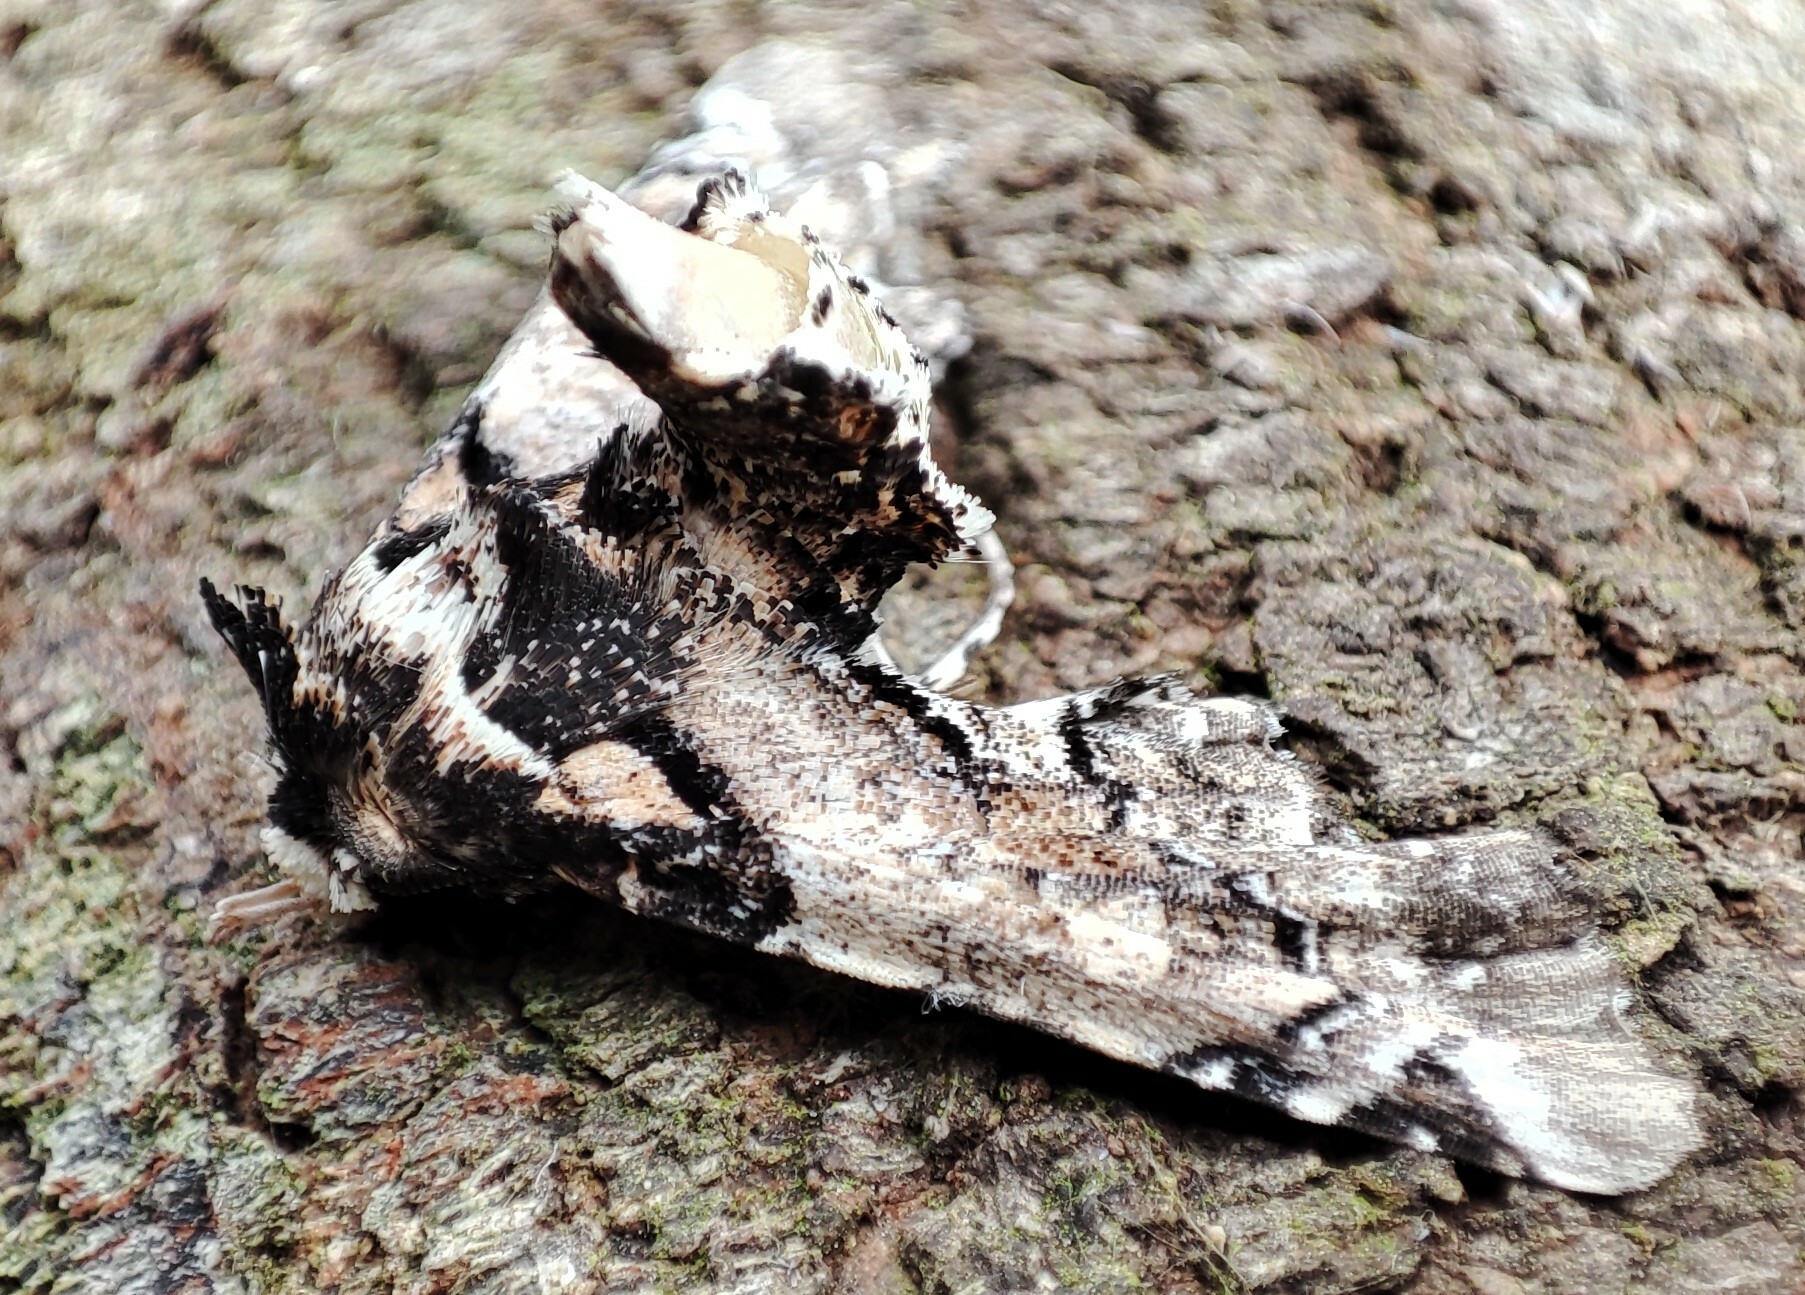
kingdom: Animalia
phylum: Arthropoda
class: Insecta
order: Lepidoptera
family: Euteliidae
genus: Eutelia
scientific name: Eutelia bowkeri
